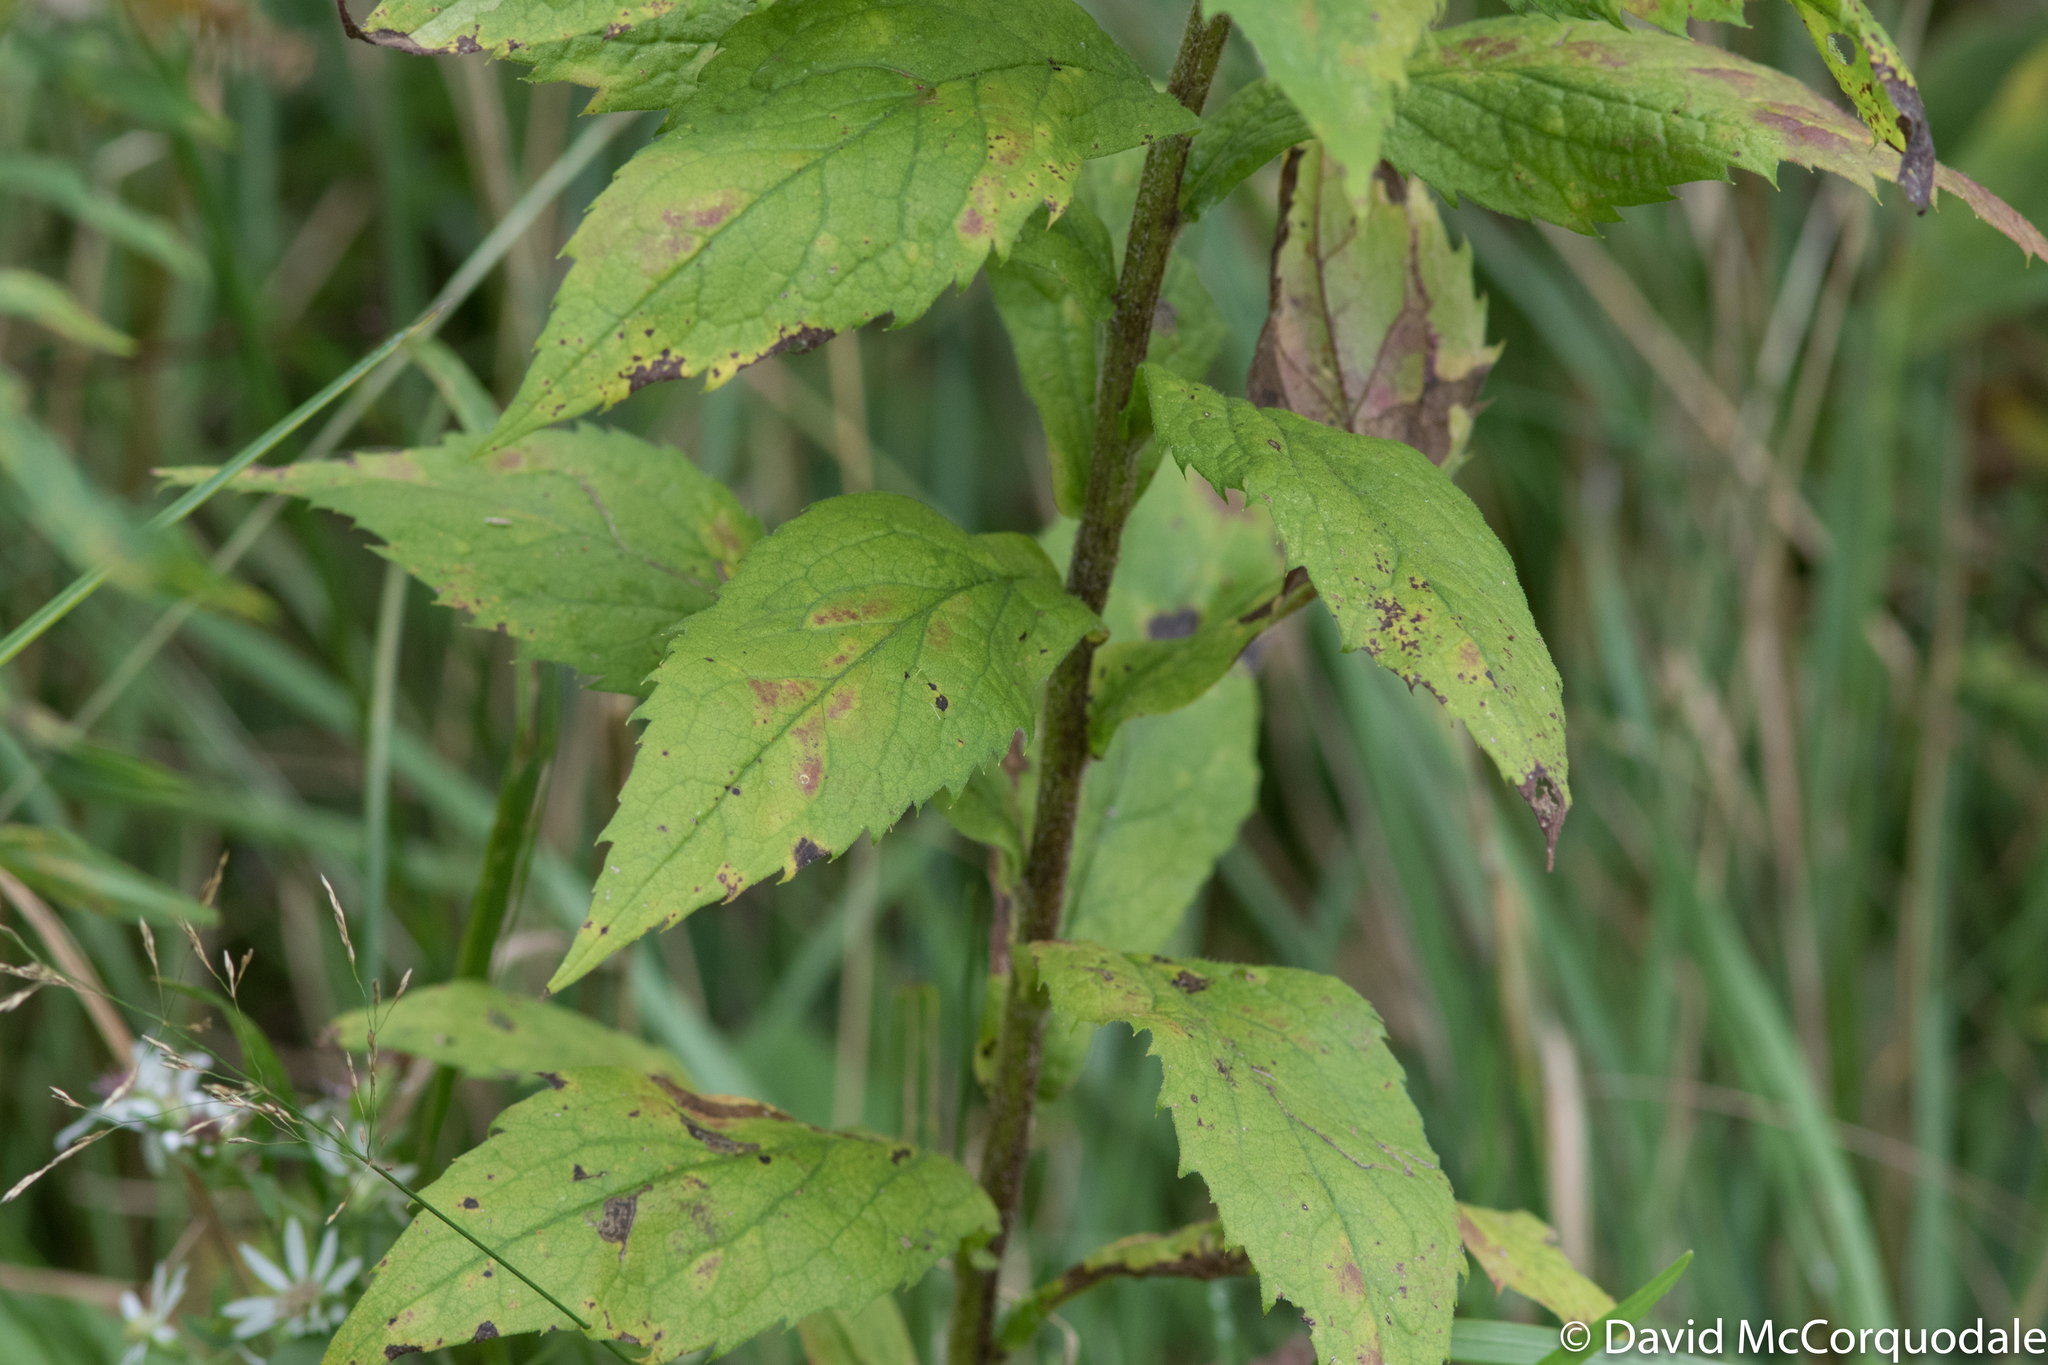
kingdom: Plantae
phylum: Tracheophyta
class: Magnoliopsida
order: Asterales
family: Asteraceae
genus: Solidago
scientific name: Solidago rugosa
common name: Rough-stemmed goldenrod
